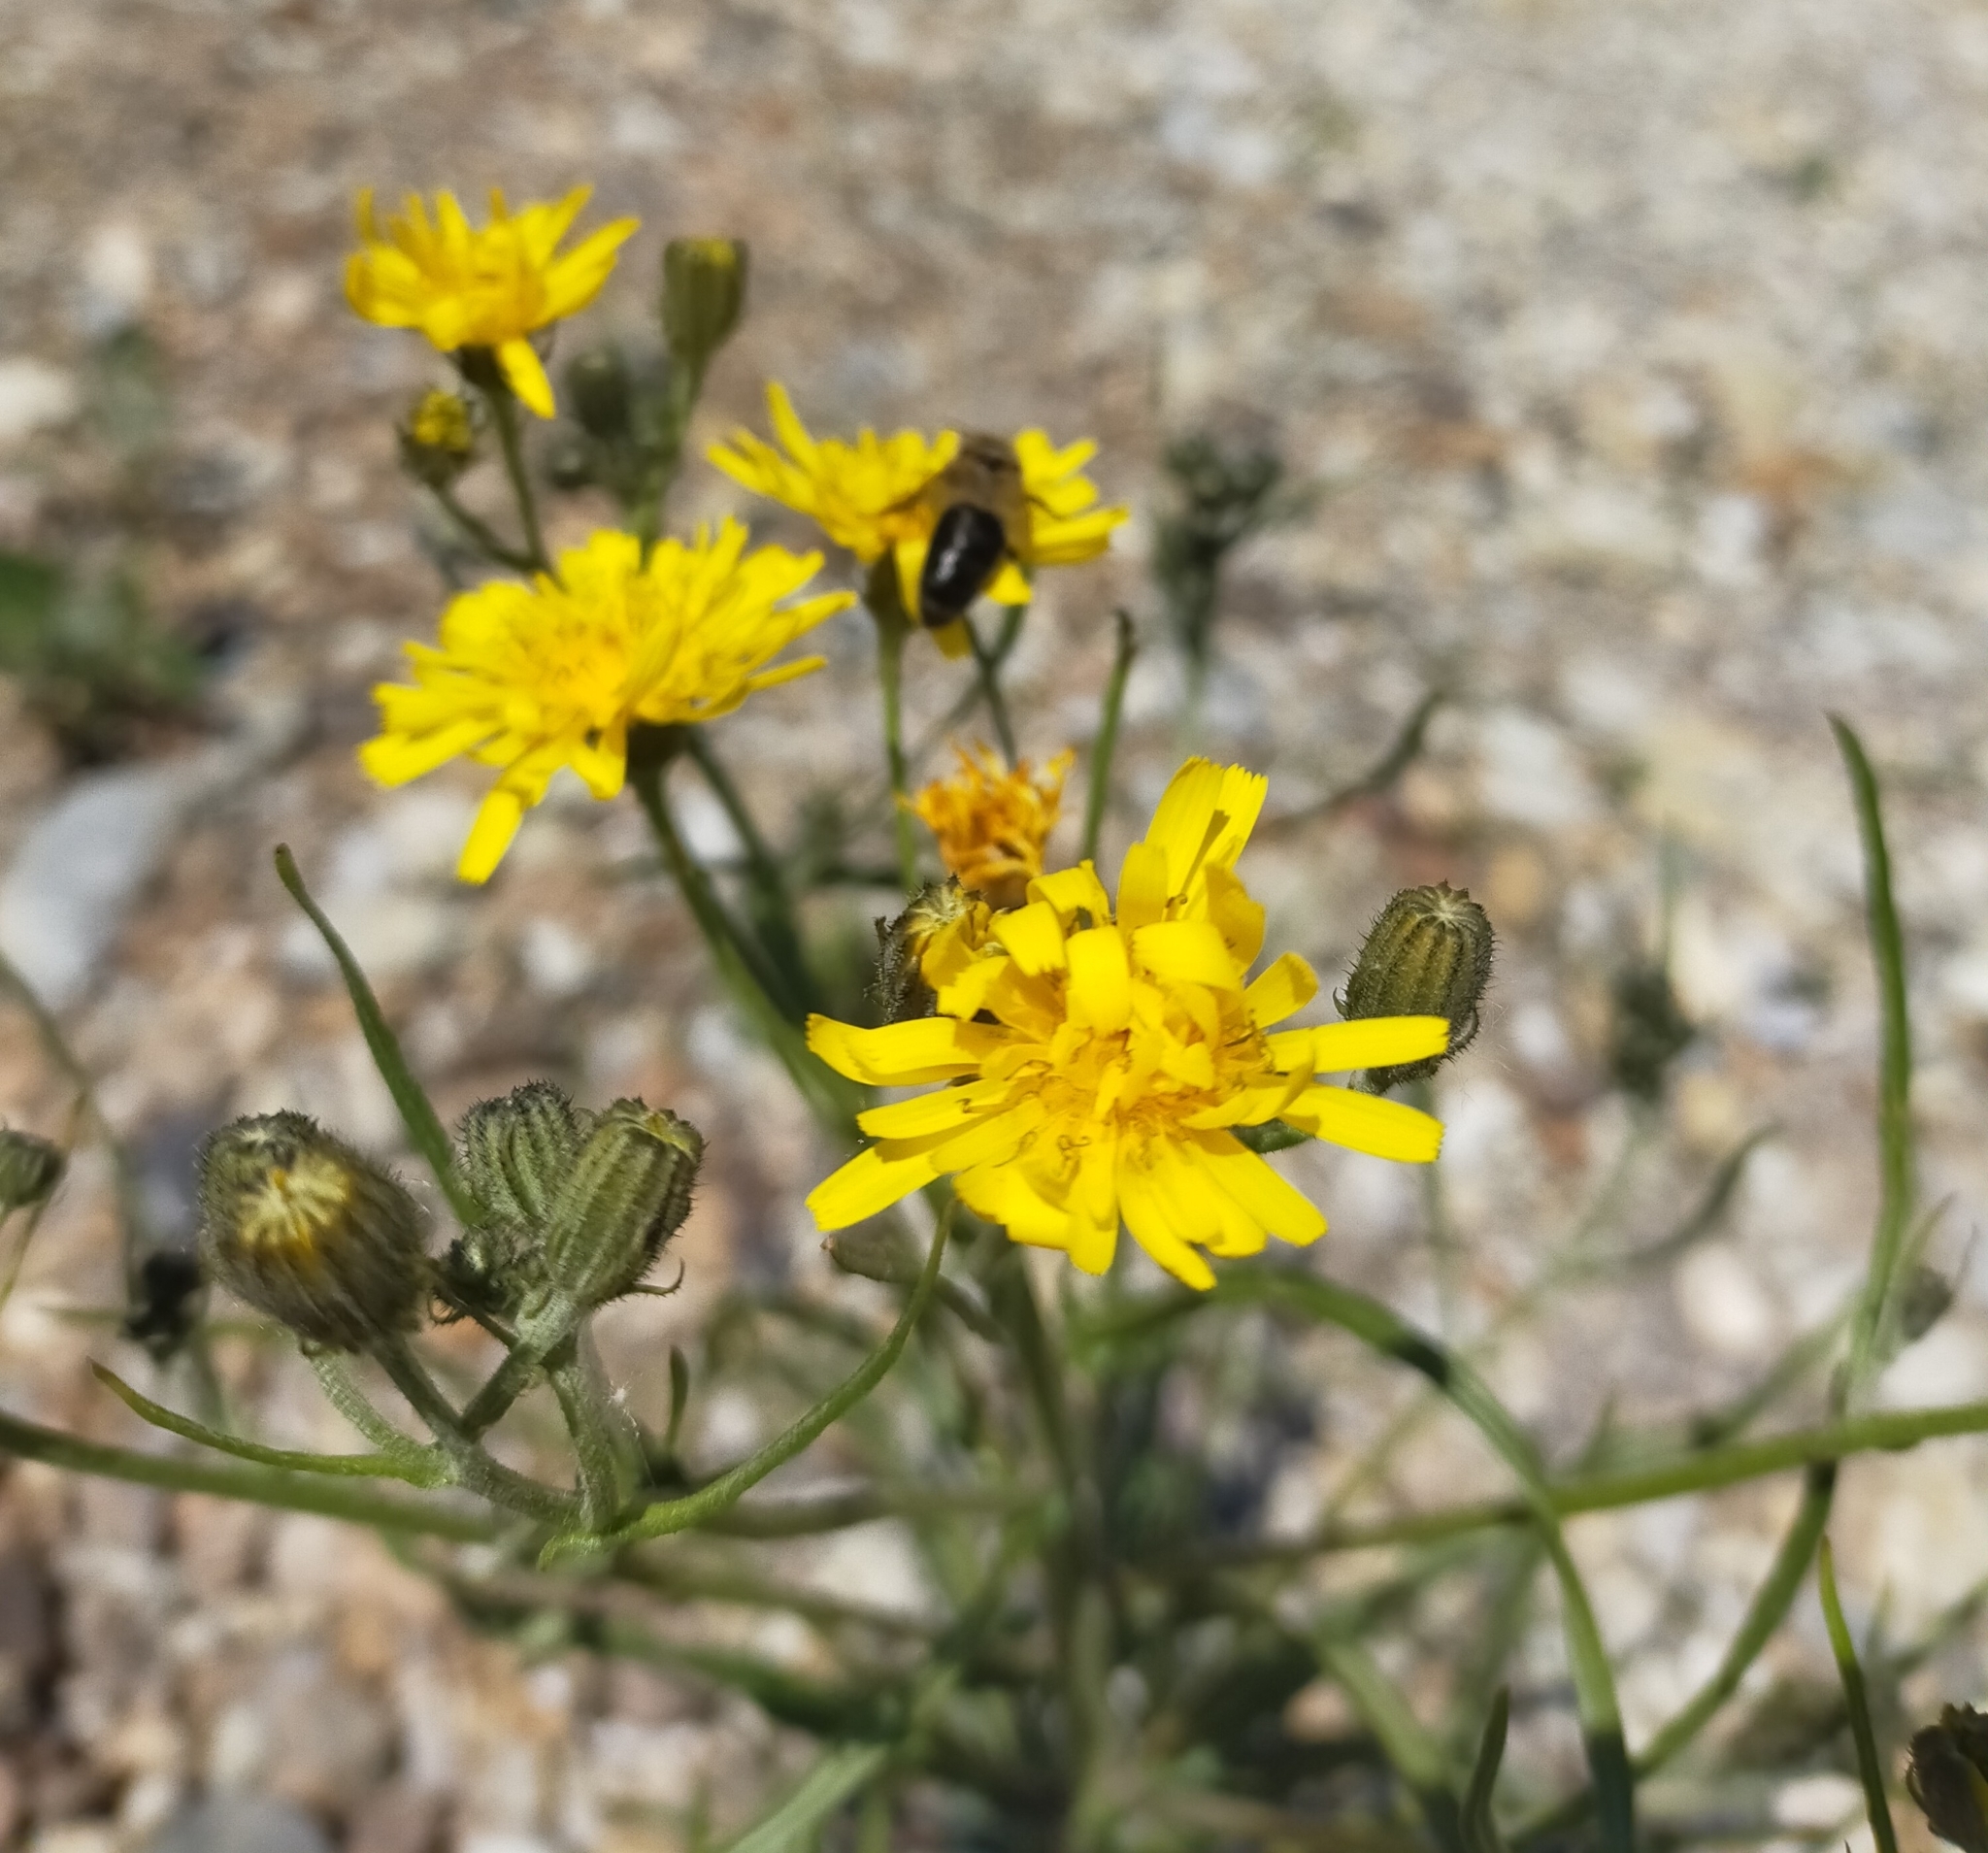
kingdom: Plantae
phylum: Tracheophyta
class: Magnoliopsida
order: Asterales
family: Asteraceae
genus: Crepis
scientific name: Crepis tectorum
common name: Narrow-leaved hawk's-beard
